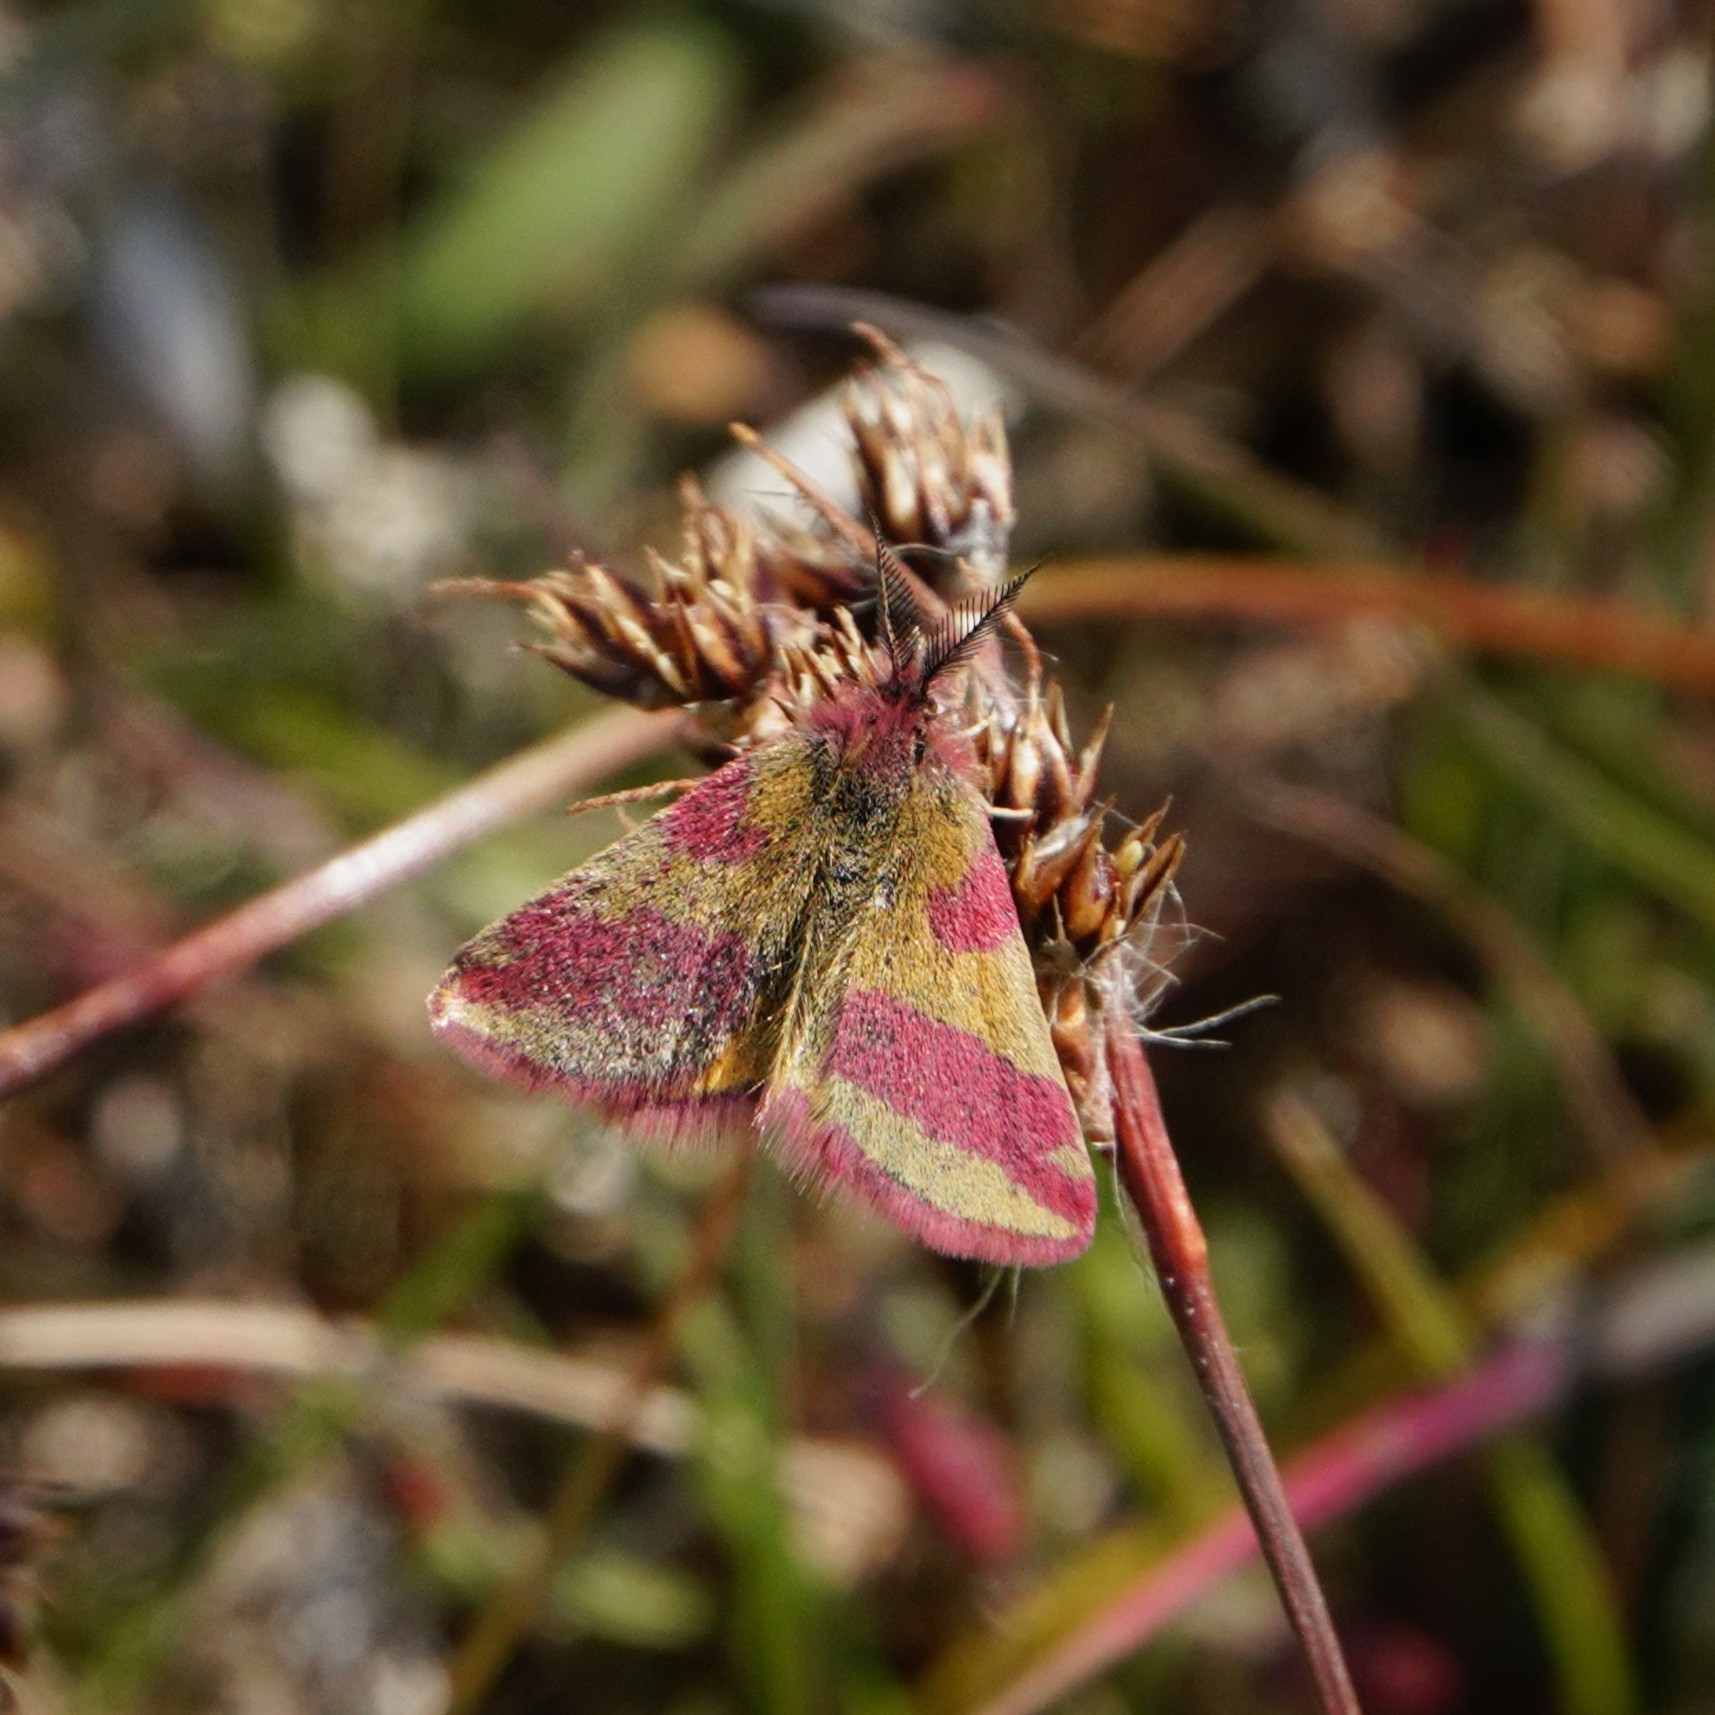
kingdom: Animalia
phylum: Arthropoda
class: Insecta
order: Lepidoptera
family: Geometridae
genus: Lythria
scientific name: Lythria cruentaria
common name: Purple-barred yellow
